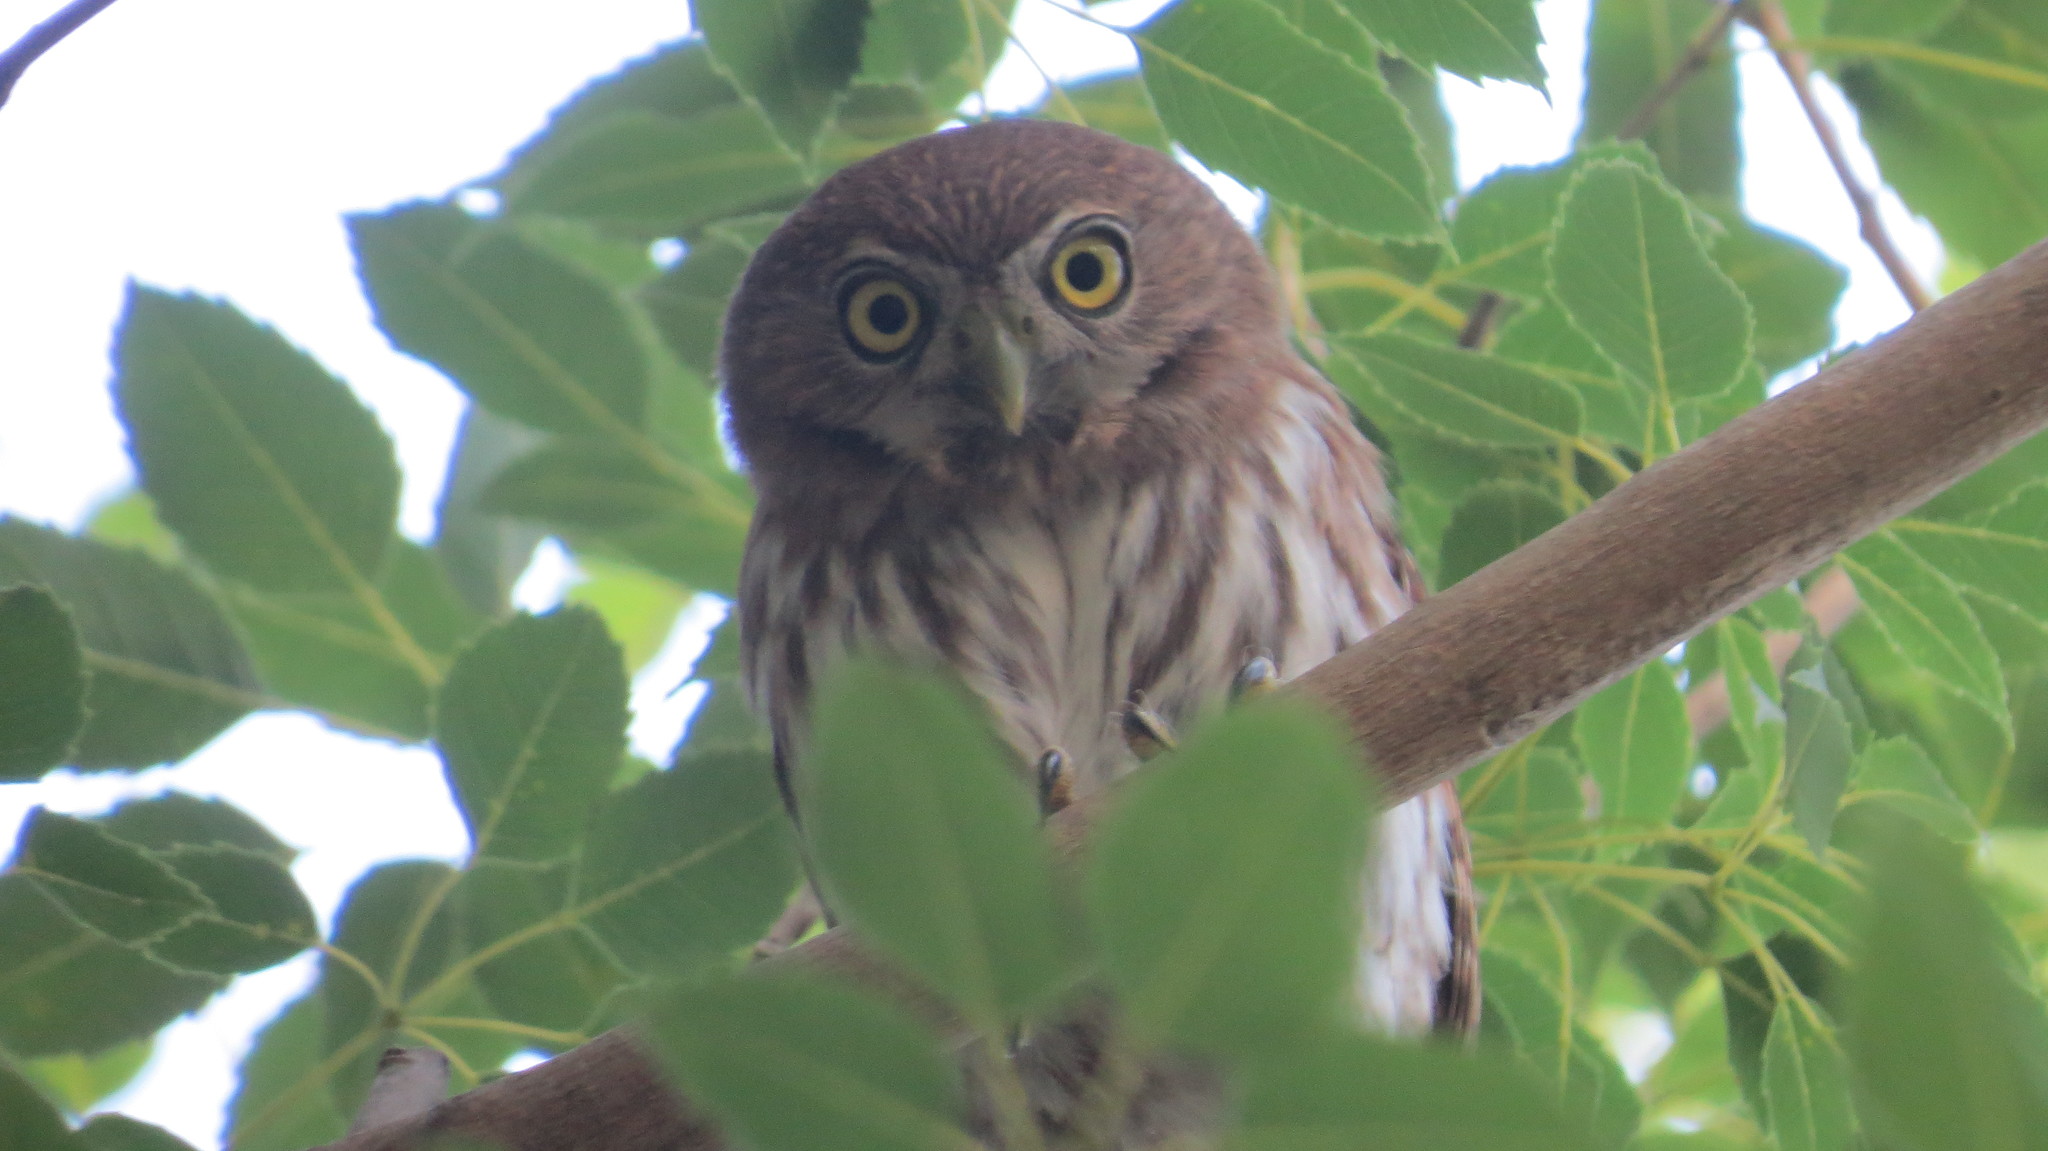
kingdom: Animalia
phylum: Chordata
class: Aves
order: Strigiformes
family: Strigidae
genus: Glaucidium
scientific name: Glaucidium brasilianum
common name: Ferruginous pygmy-owl
